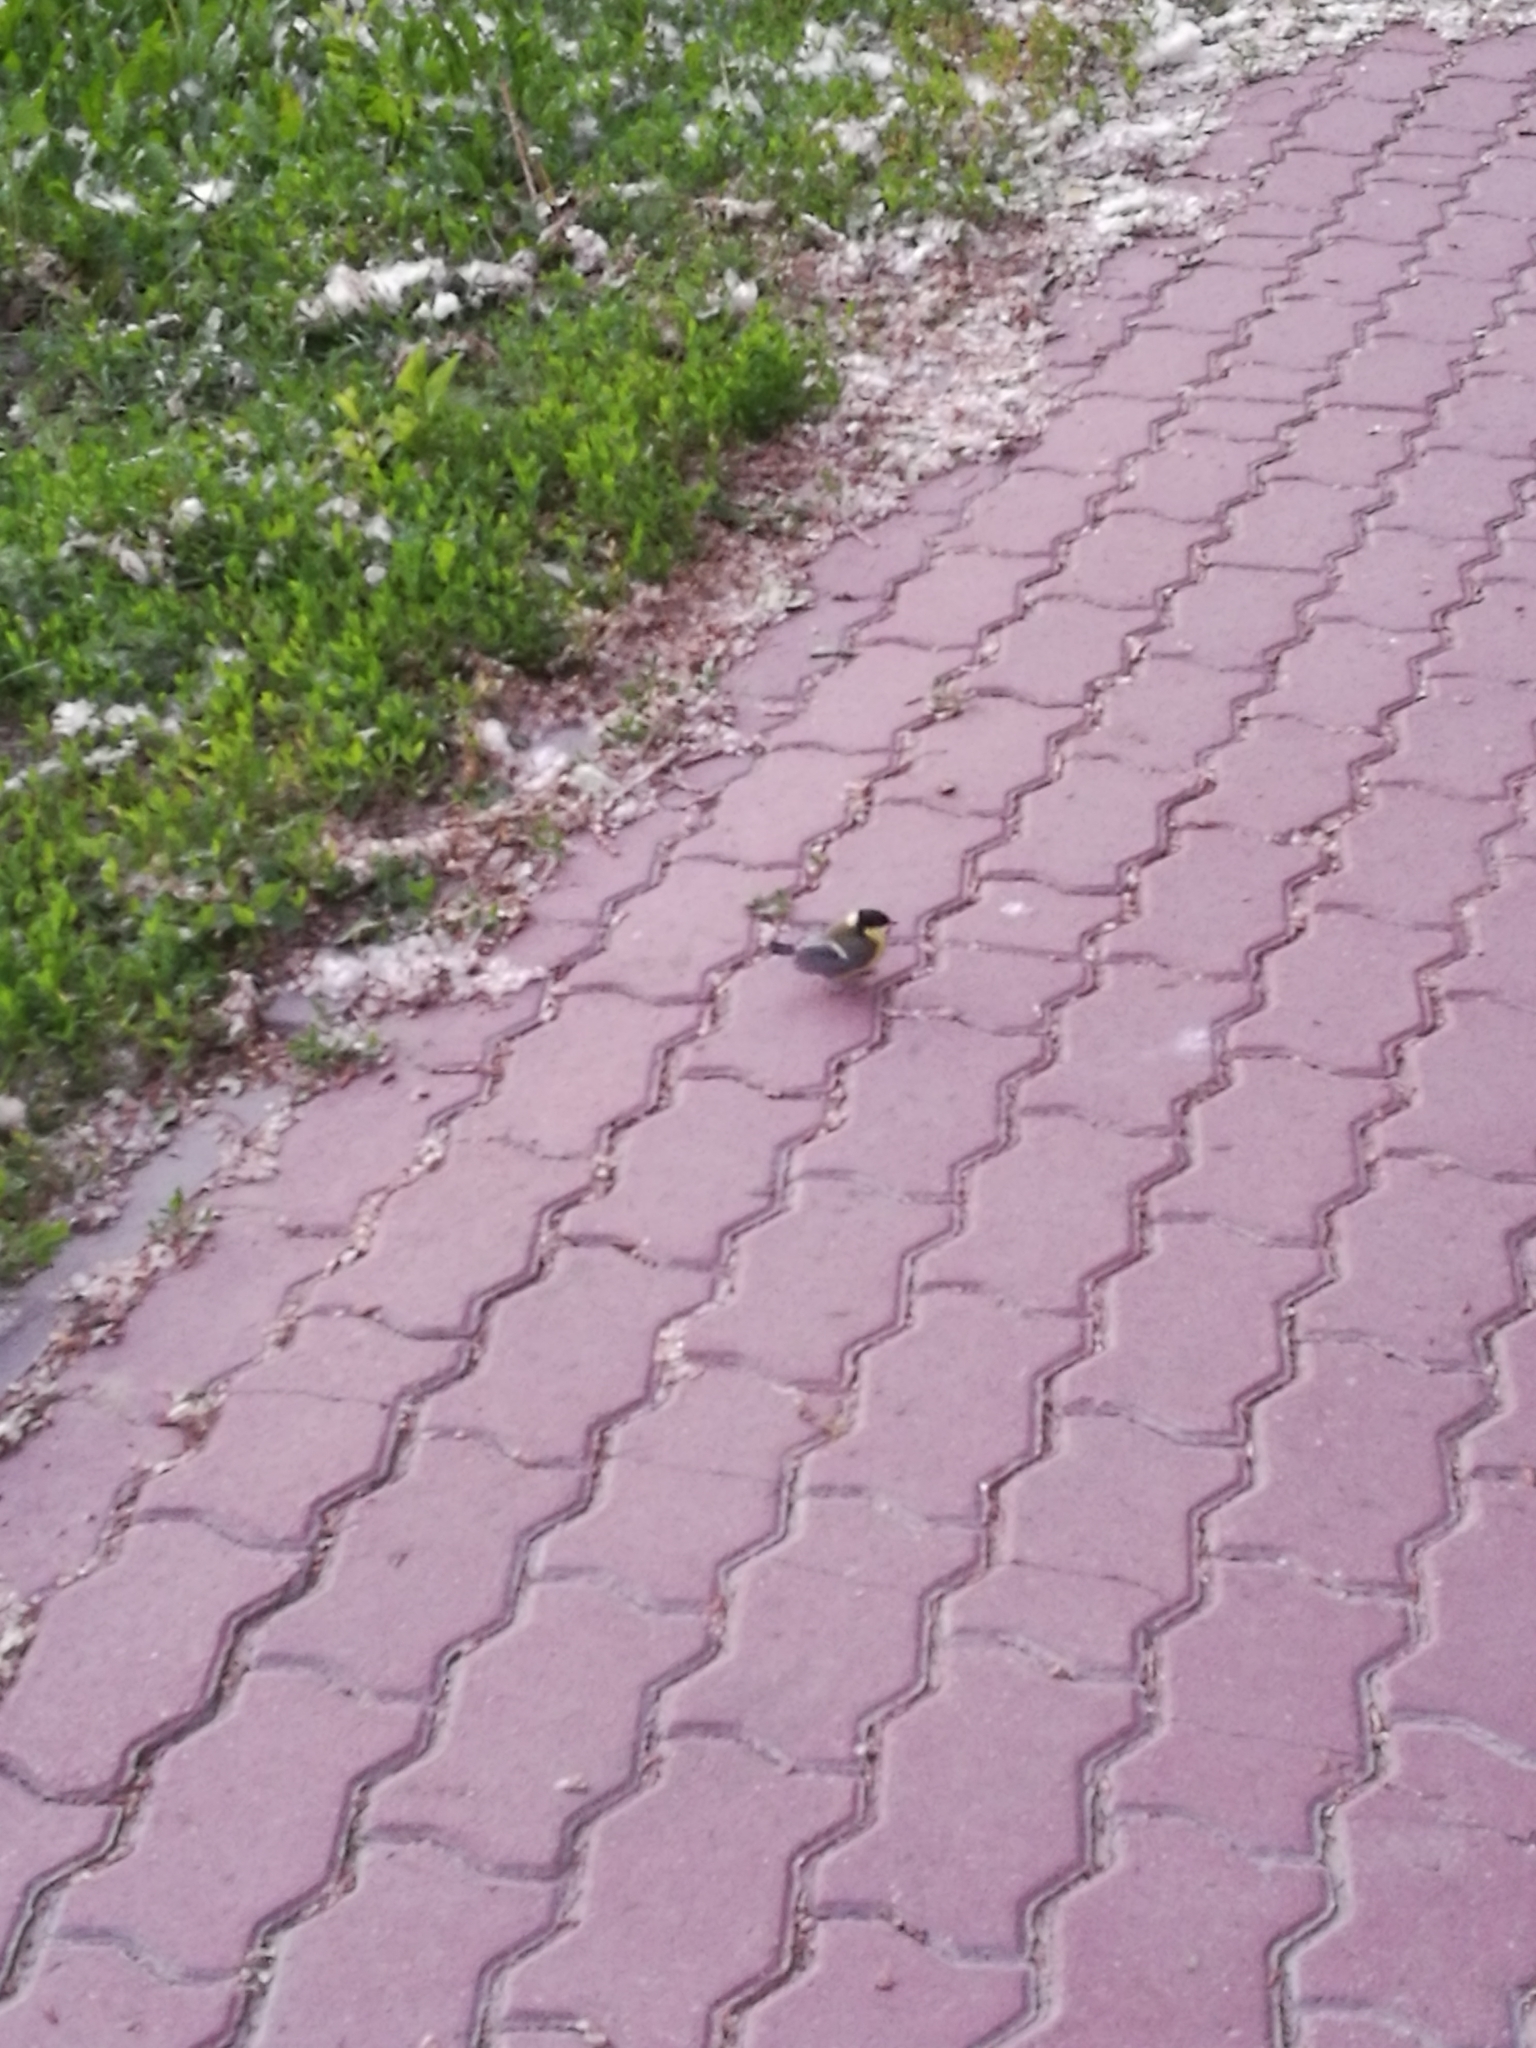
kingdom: Animalia
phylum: Chordata
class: Aves
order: Passeriformes
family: Paridae
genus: Parus
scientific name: Parus major
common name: Great tit
